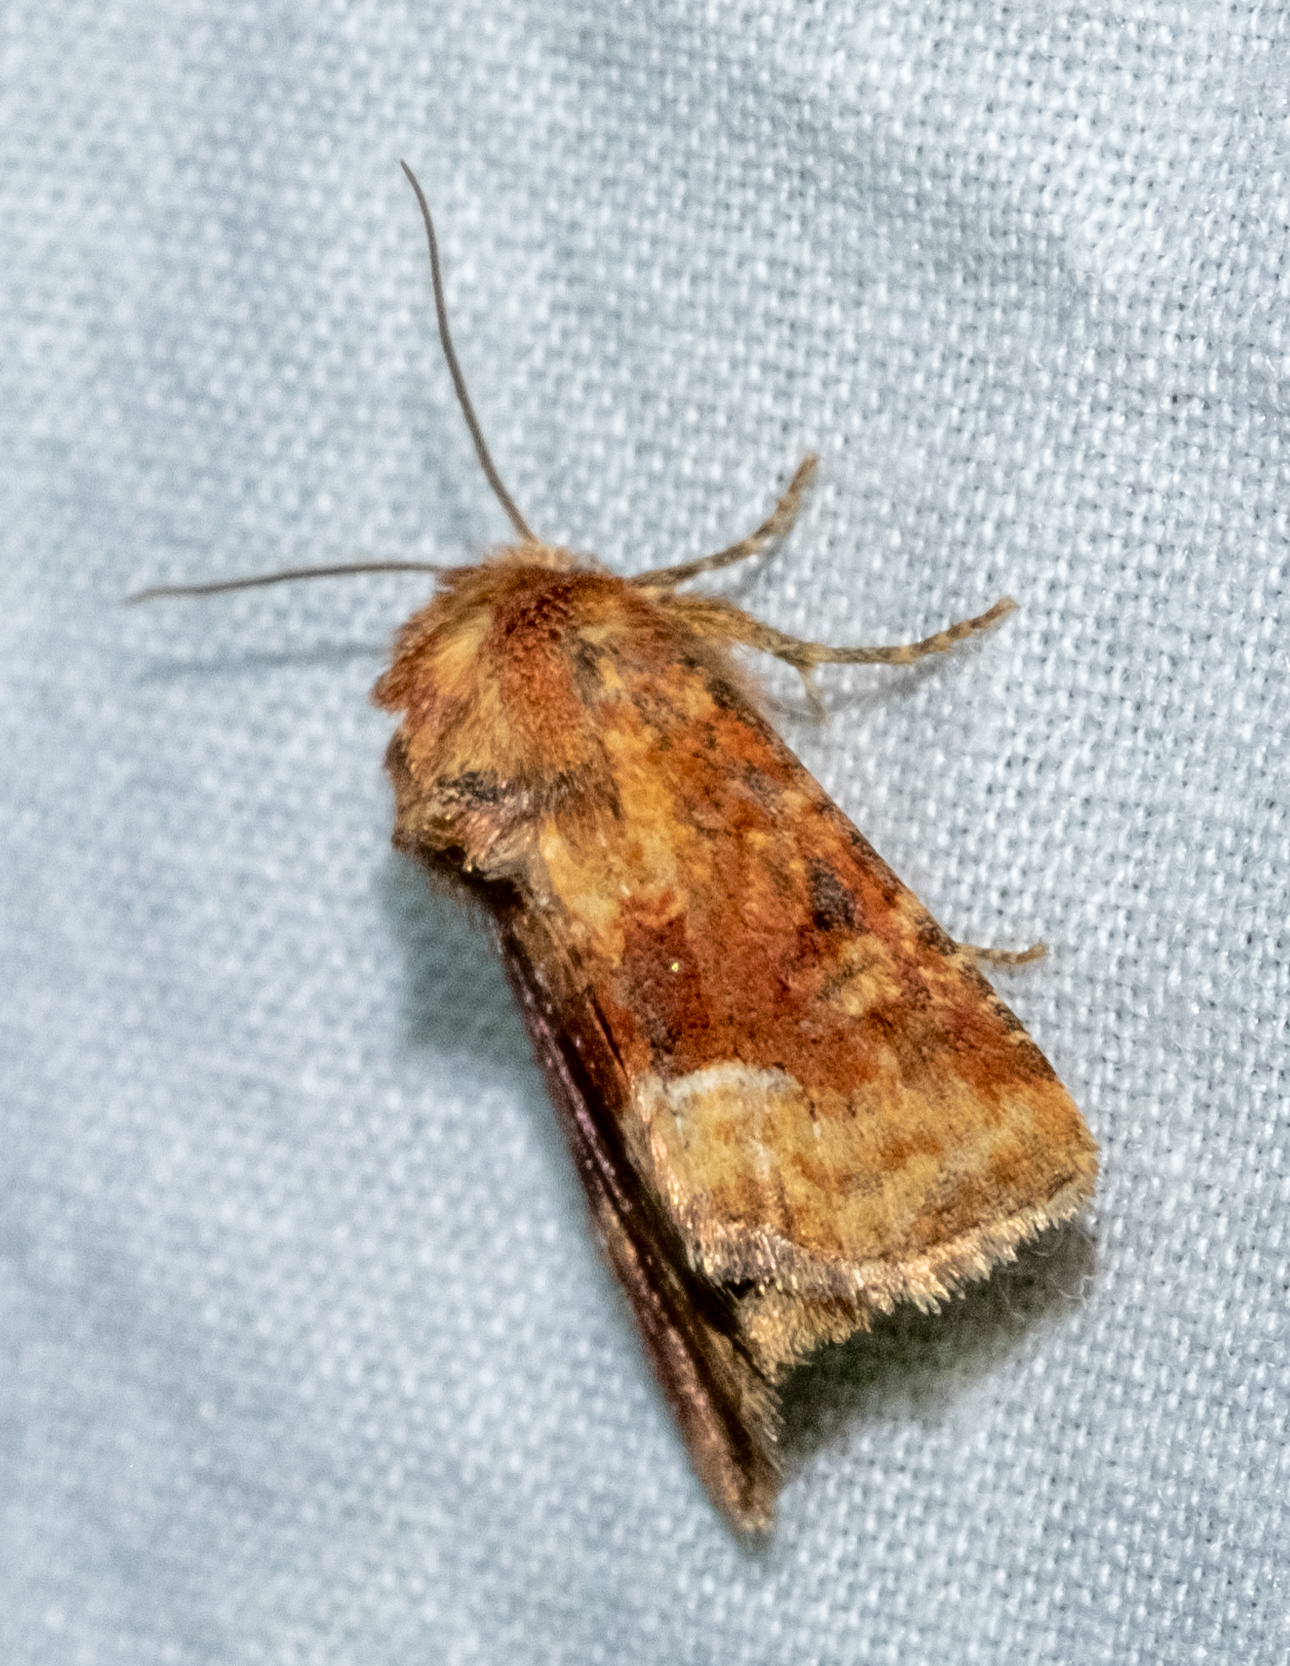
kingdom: Animalia
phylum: Arthropoda
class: Insecta
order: Lepidoptera
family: Noctuidae
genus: Oligia
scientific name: Oligia fasciuncula
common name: Middle-barred minor
